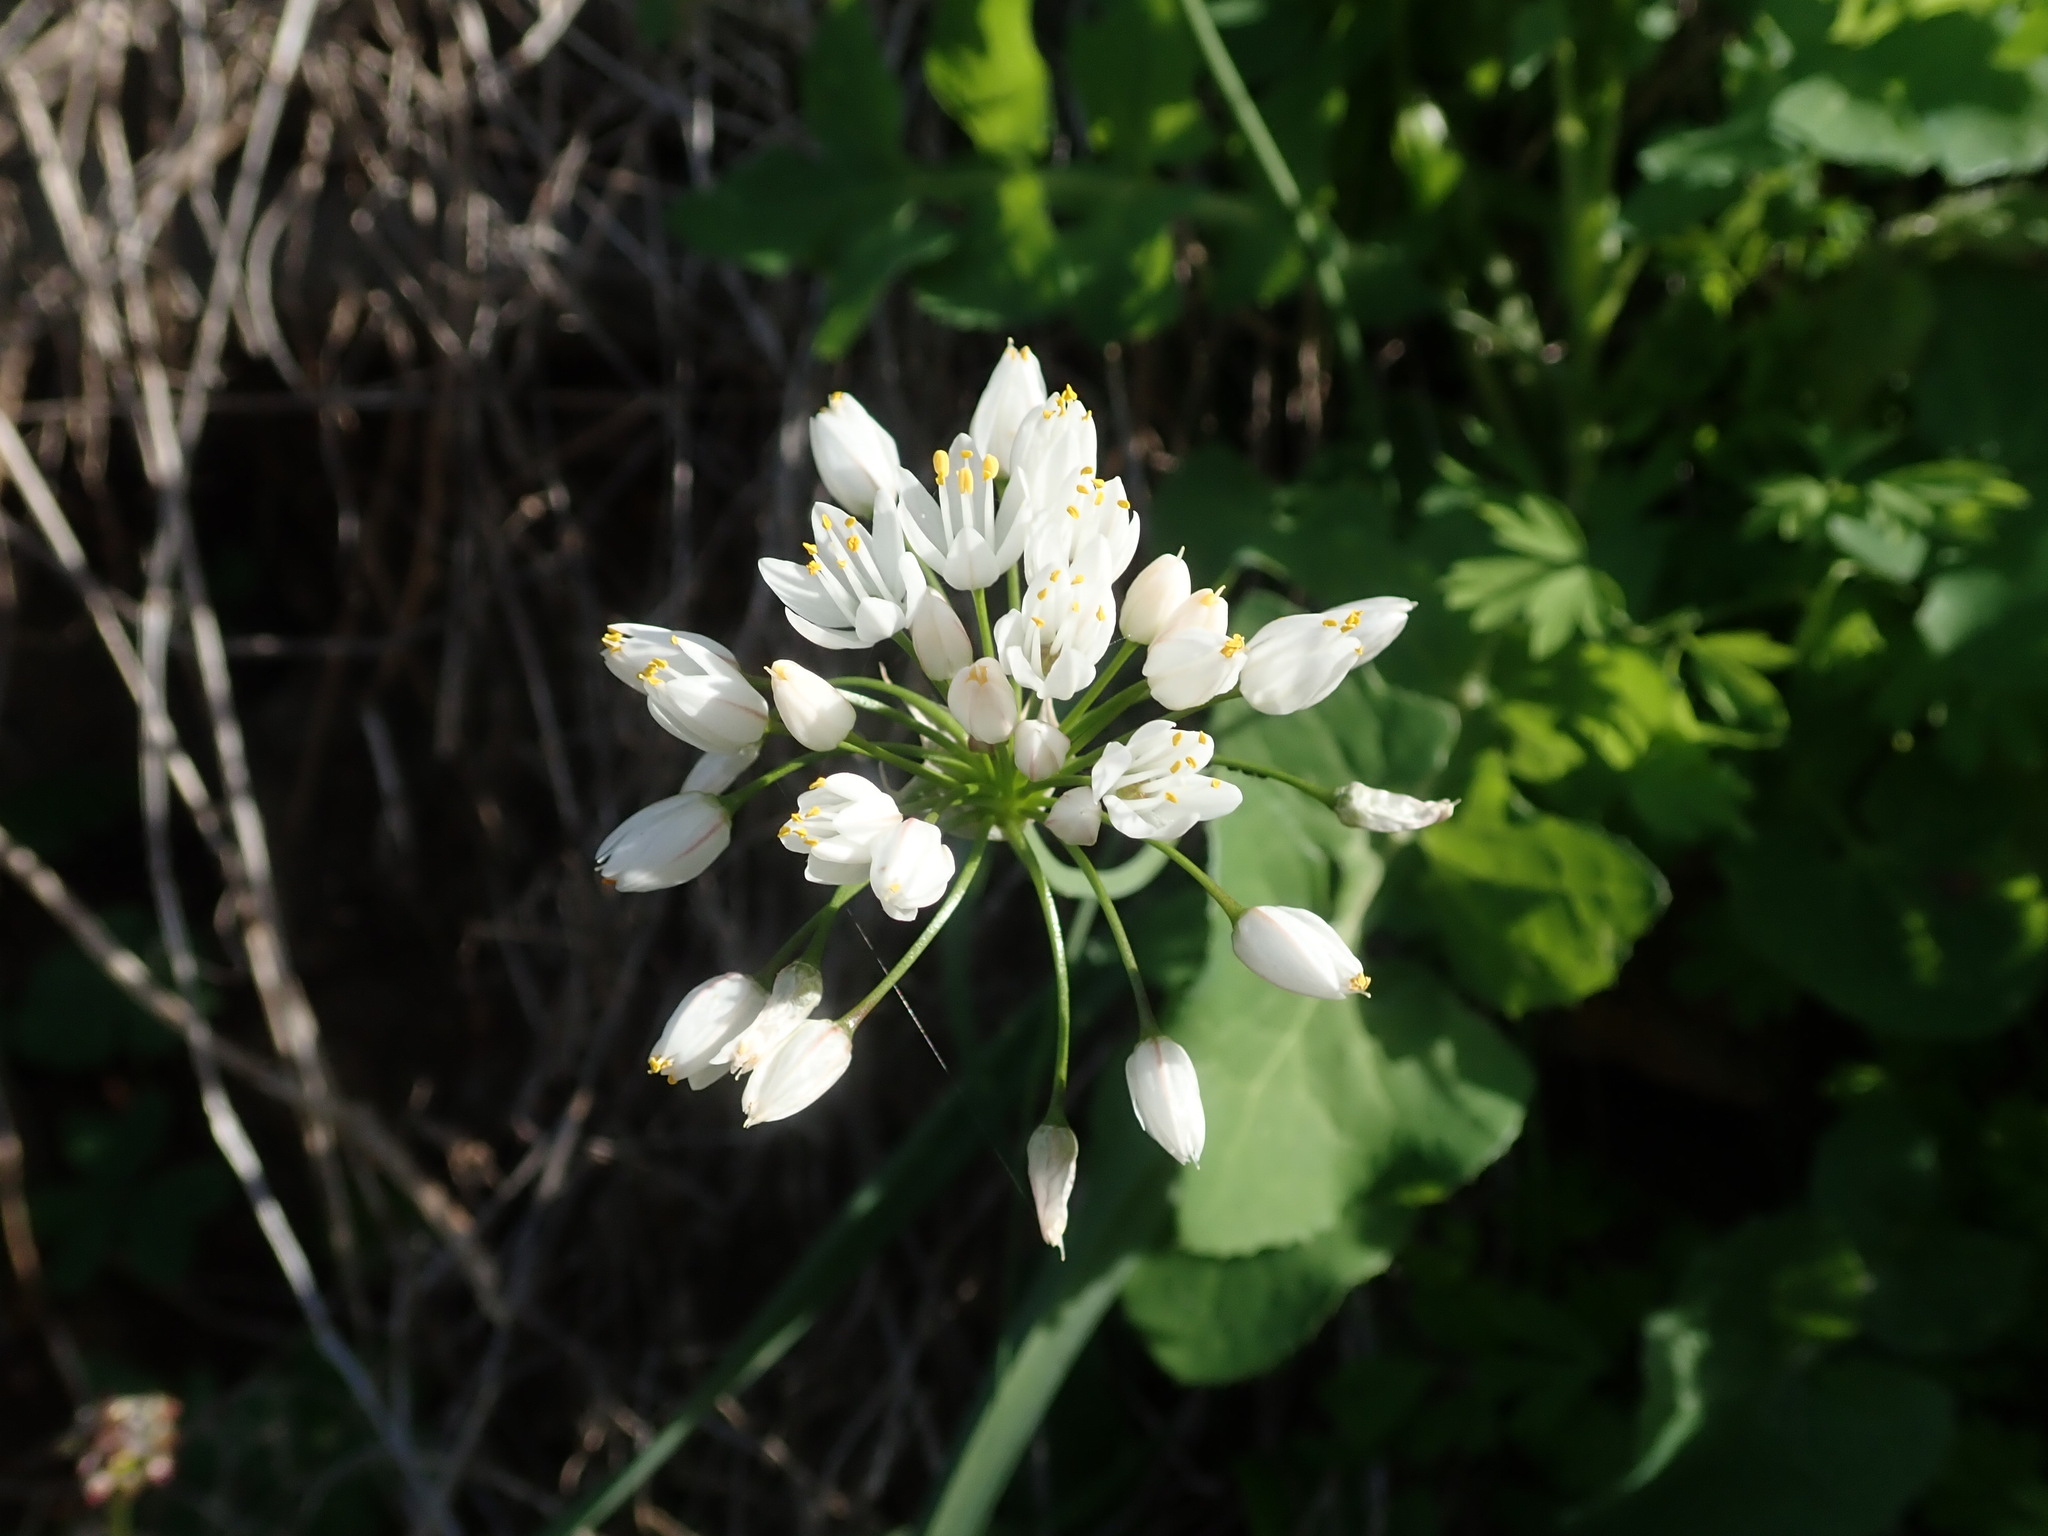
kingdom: Plantae
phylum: Tracheophyta
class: Liliopsida
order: Asparagales
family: Amaryllidaceae
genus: Allium
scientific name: Allium canariense
